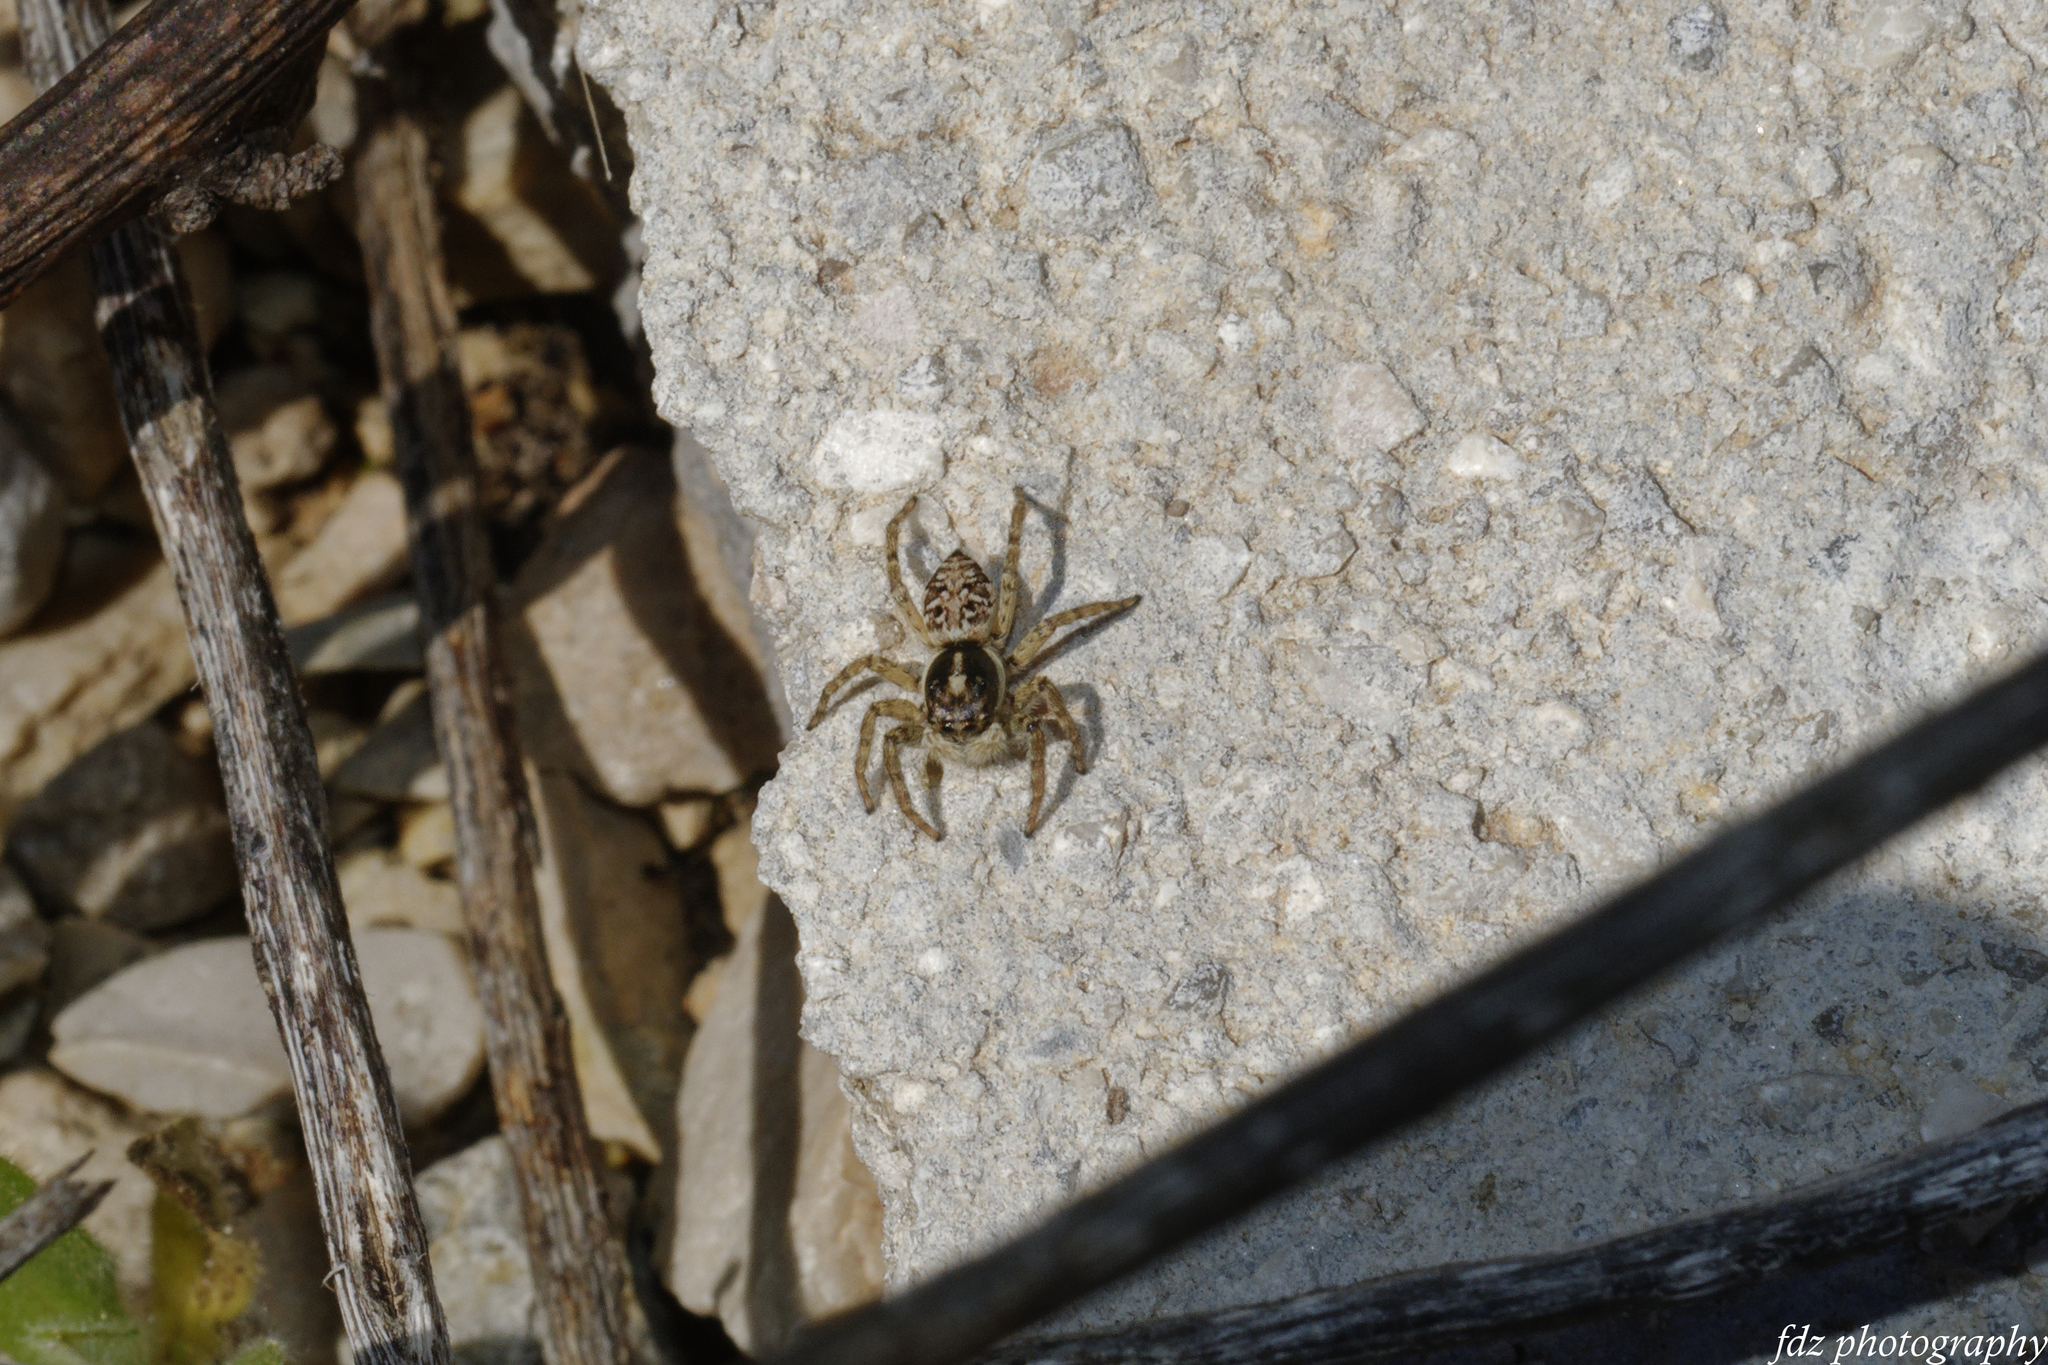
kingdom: Animalia
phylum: Arthropoda
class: Arachnida
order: Araneae
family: Salticidae
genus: Menemerus
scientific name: Menemerus semilimbatus
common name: Jumping spider
